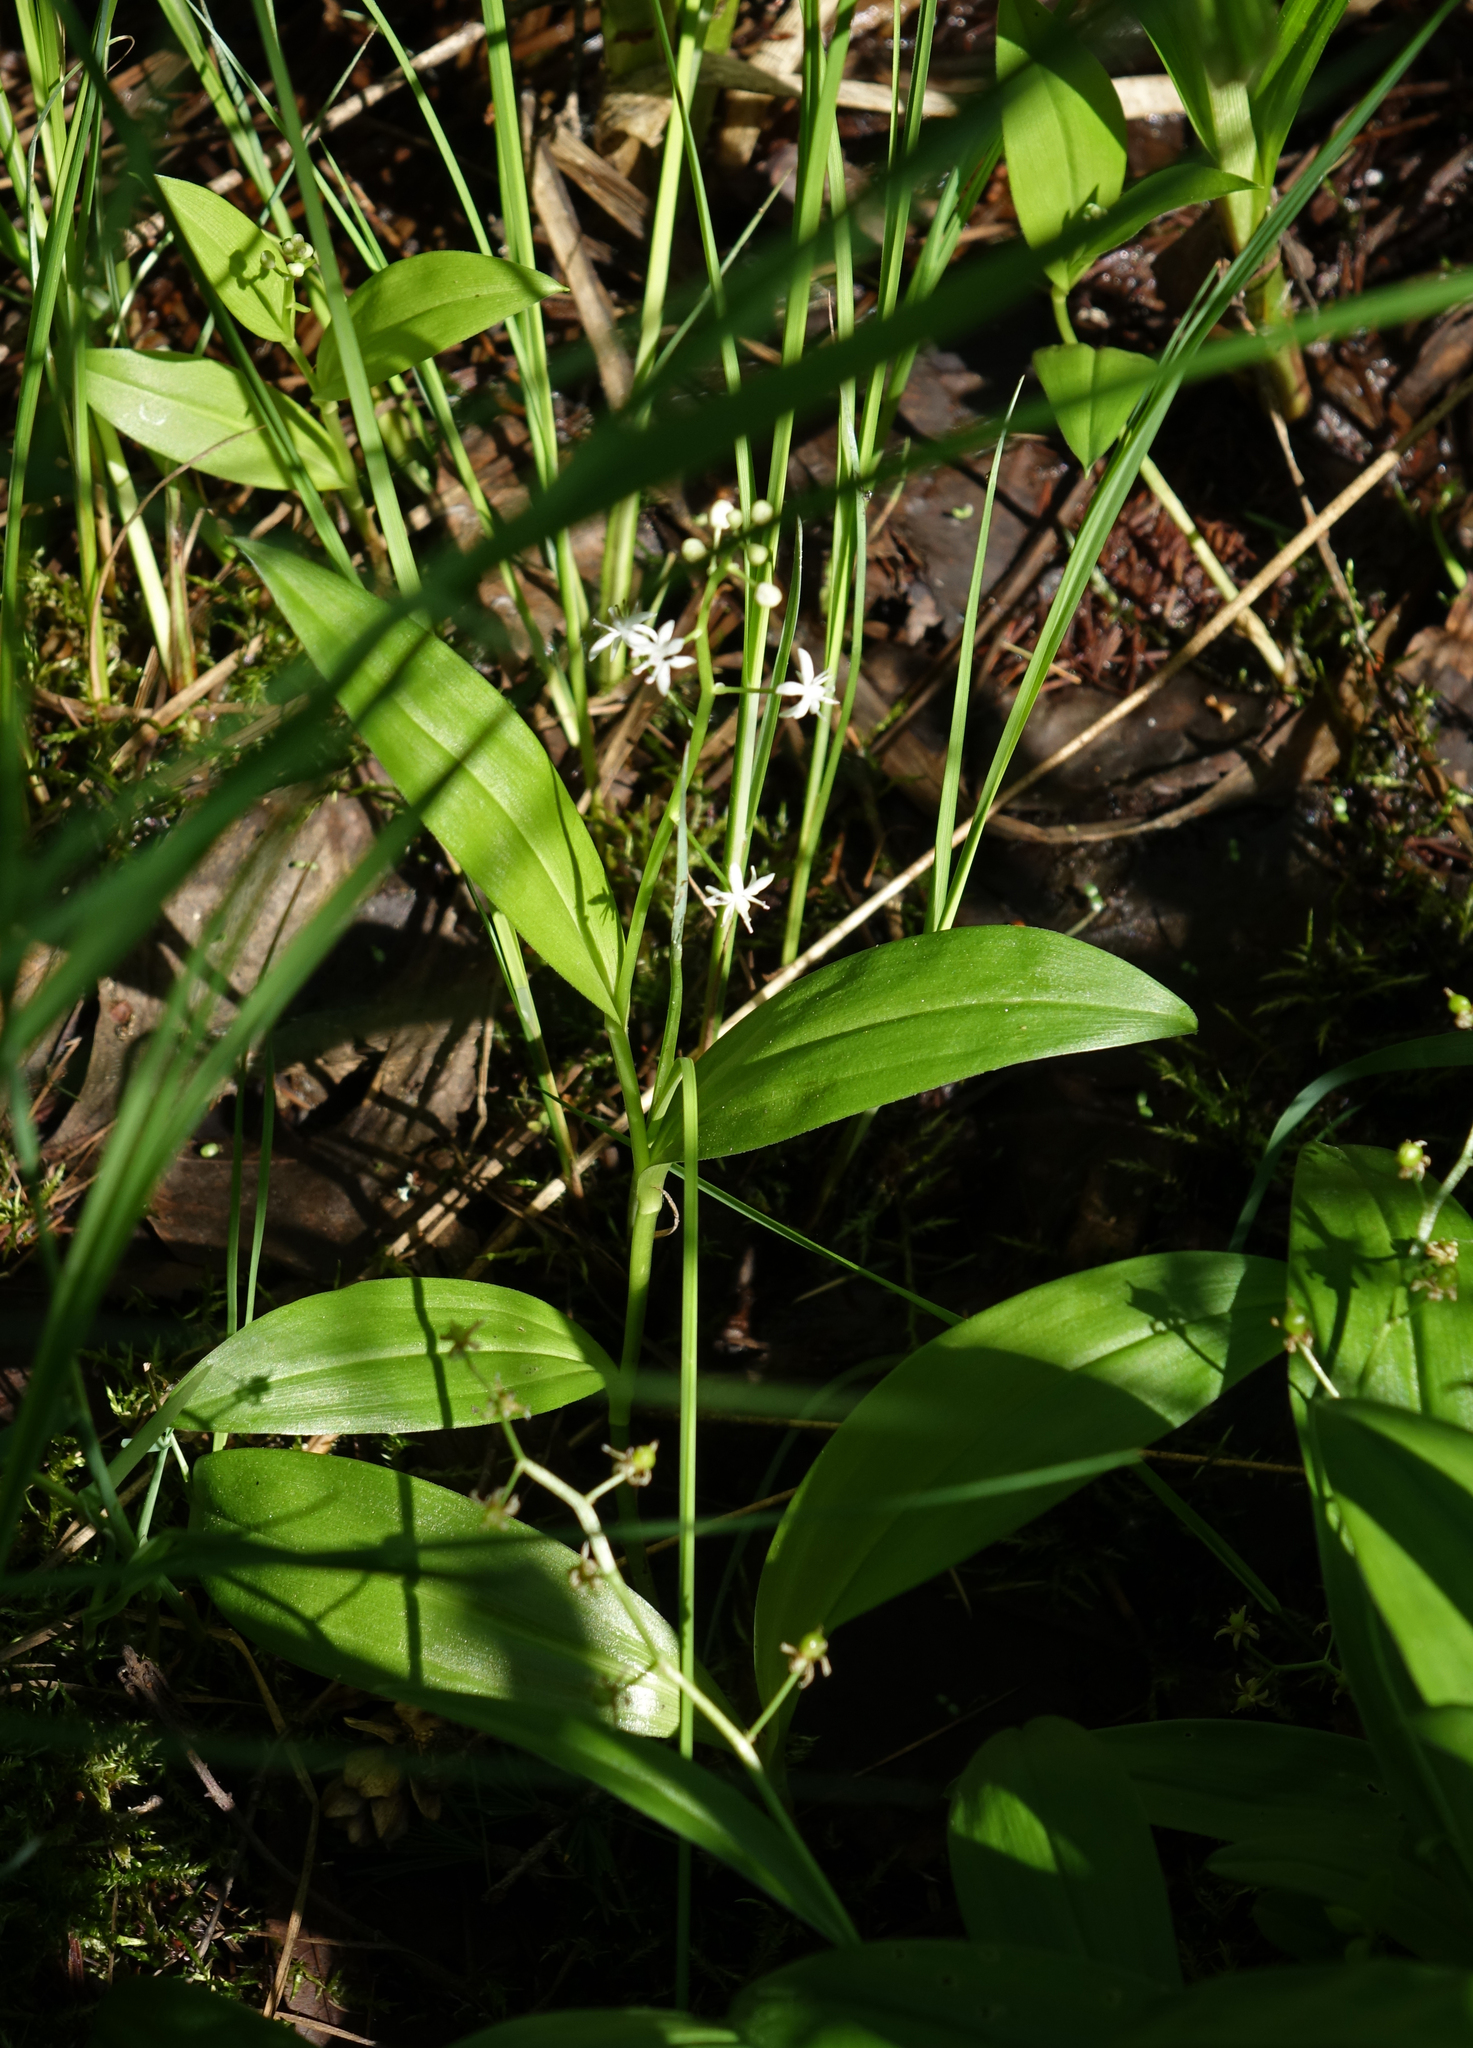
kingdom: Plantae
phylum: Tracheophyta
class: Liliopsida
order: Asparagales
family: Asparagaceae
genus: Maianthemum
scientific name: Maianthemum trifolium
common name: Swamp false solomon's seal
